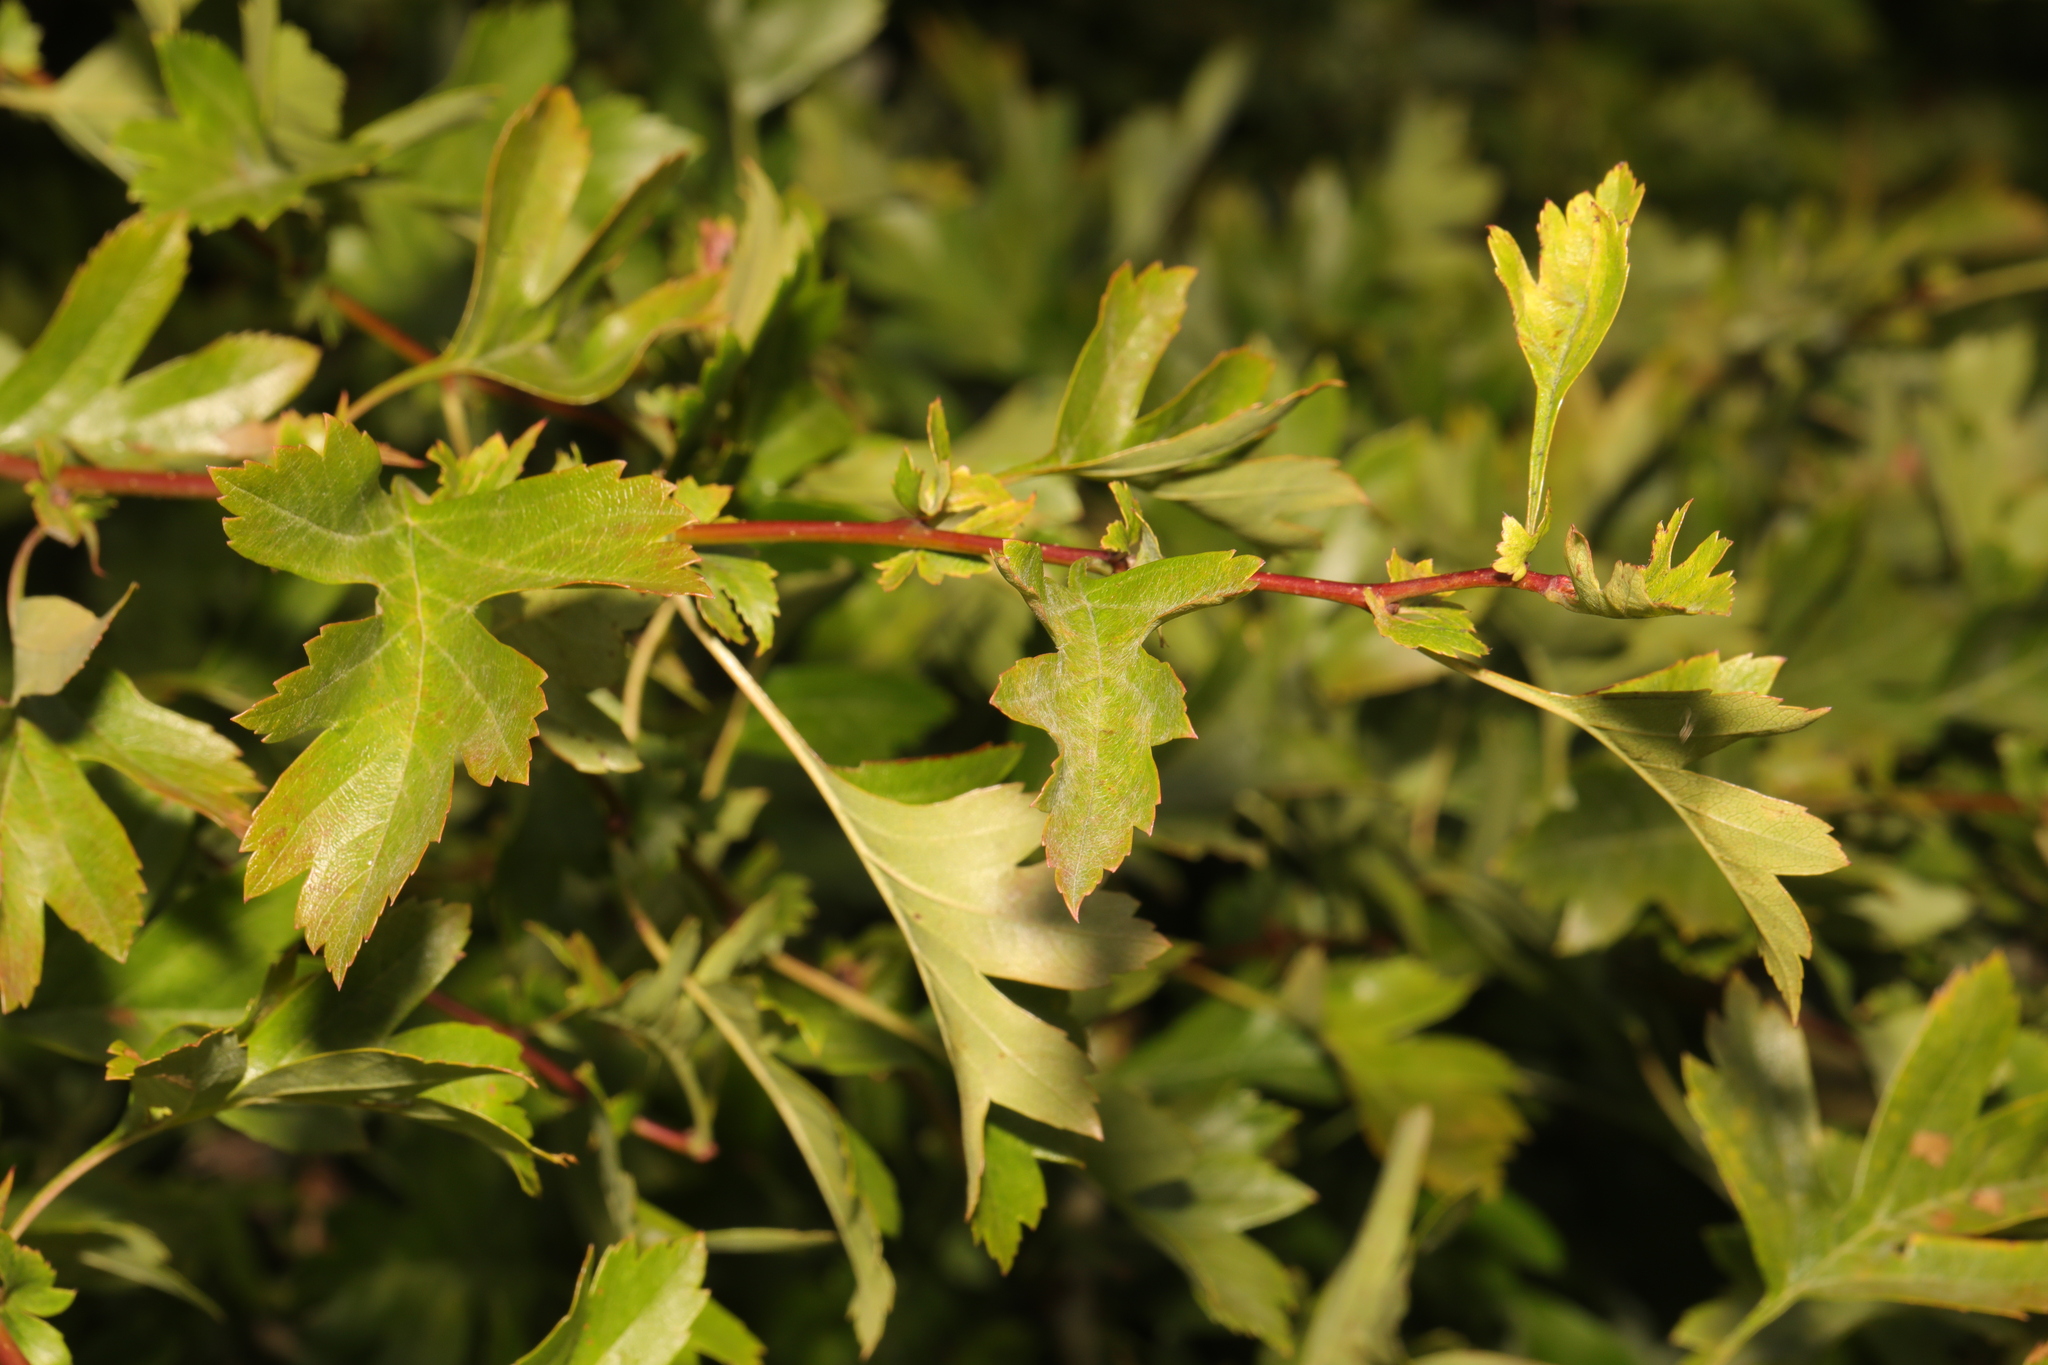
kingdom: Plantae
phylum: Tracheophyta
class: Magnoliopsida
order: Rosales
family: Rosaceae
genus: Crataegus
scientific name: Crataegus monogyna
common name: Hawthorn
